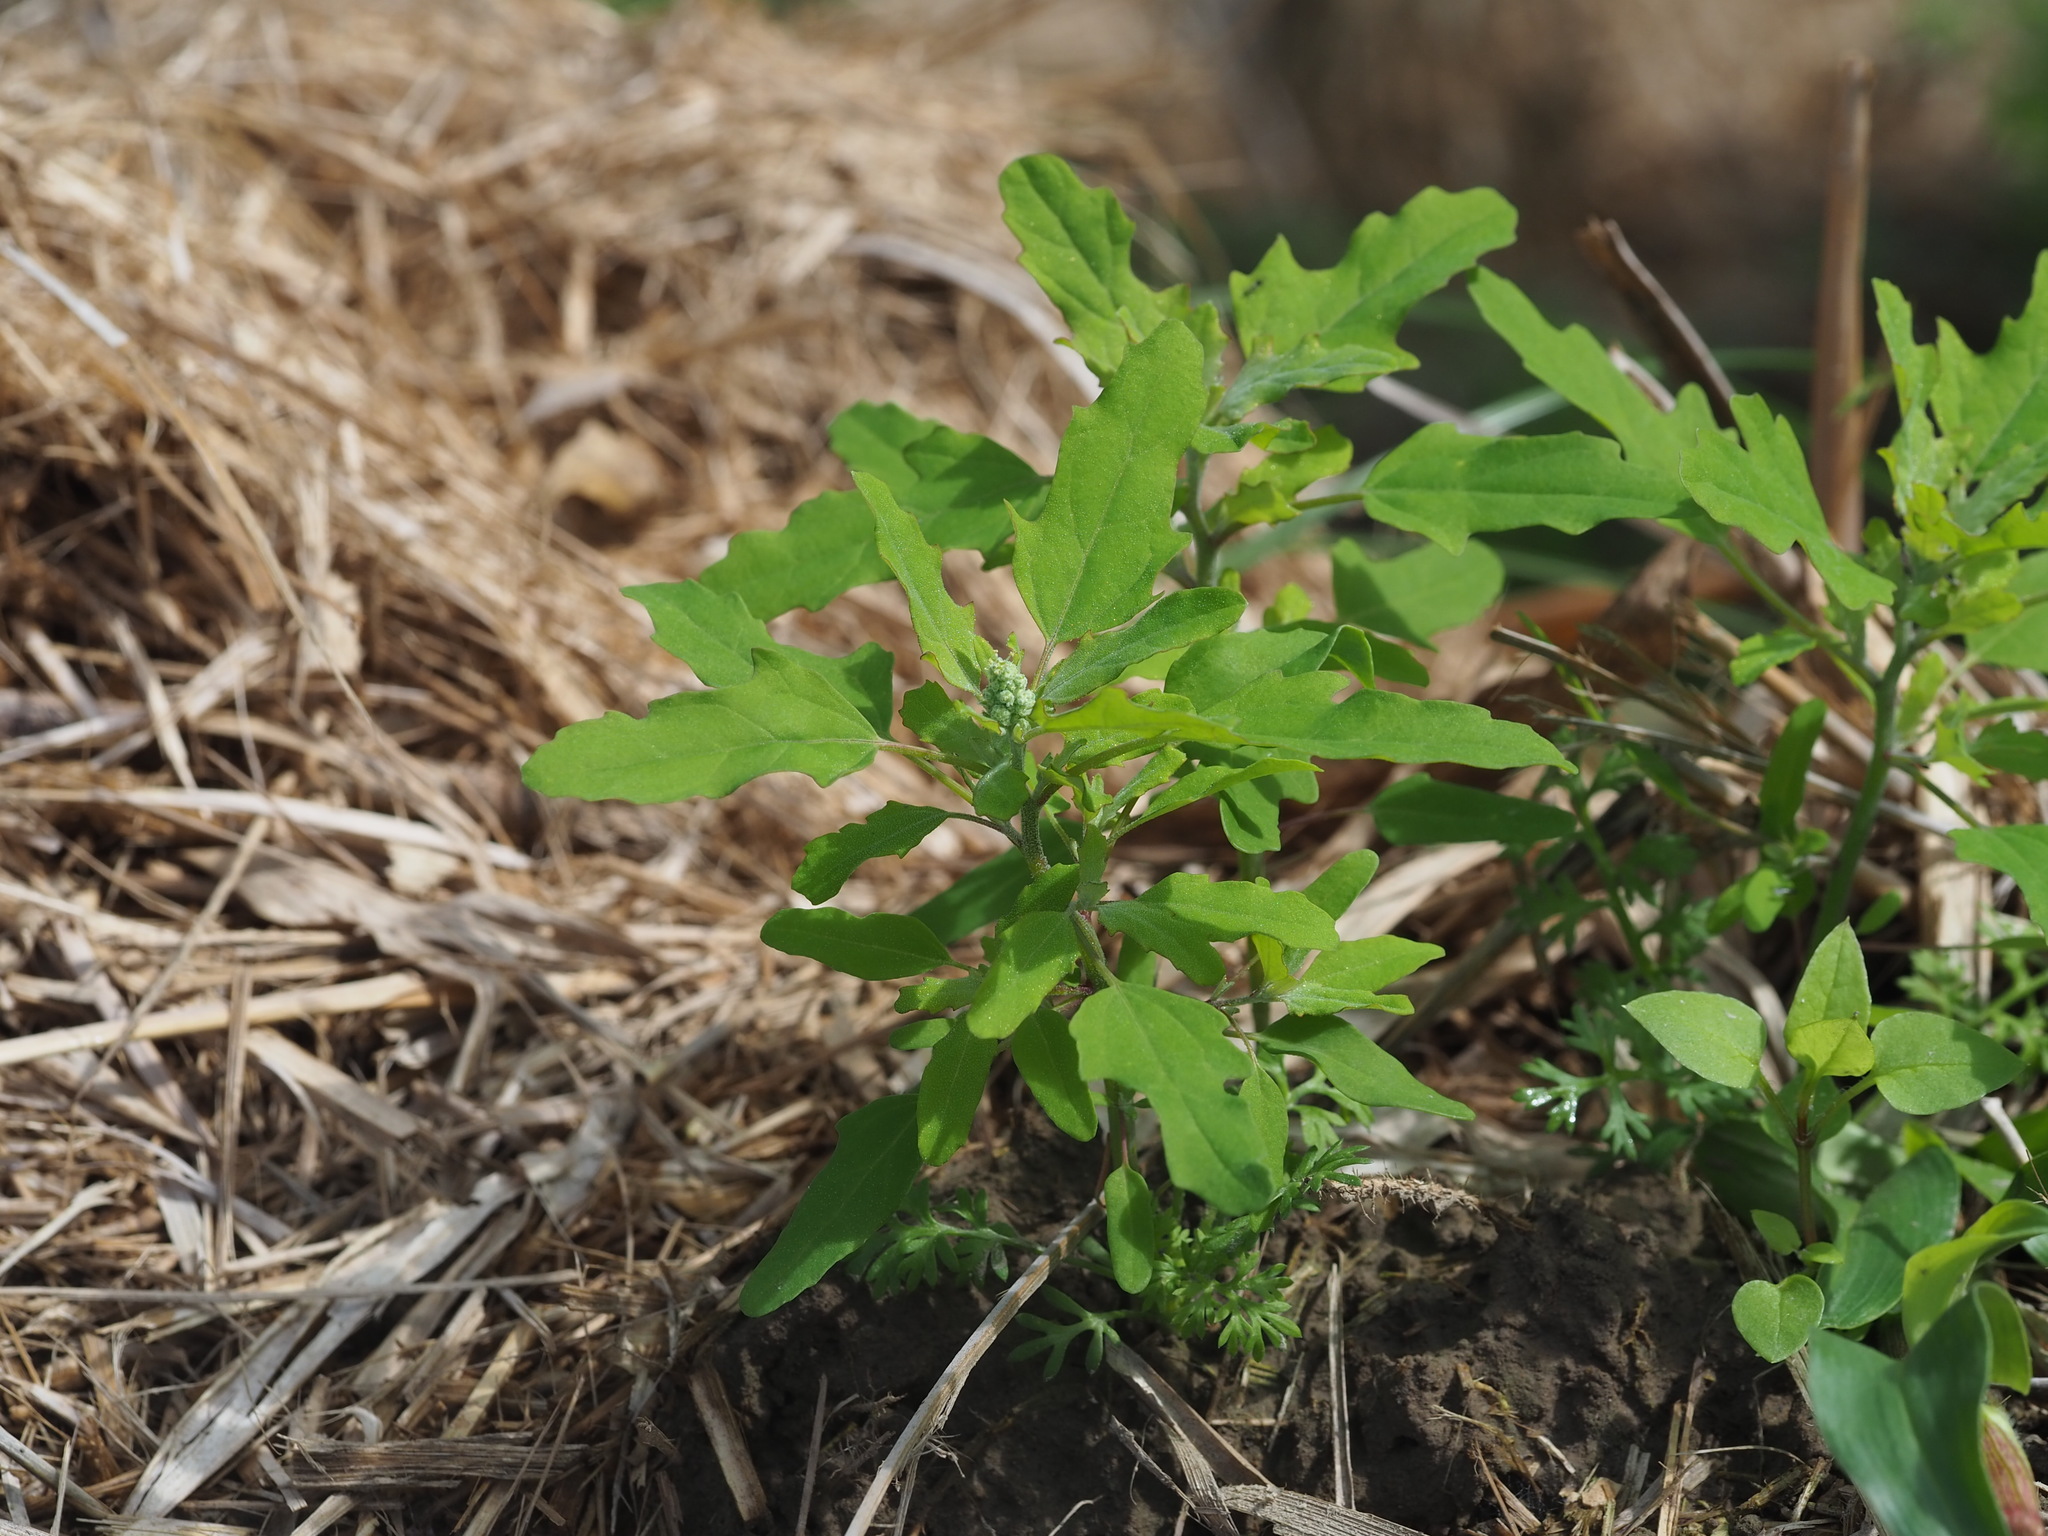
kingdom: Plantae
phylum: Tracheophyta
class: Magnoliopsida
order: Caryophyllales
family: Amaranthaceae
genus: Chenopodium
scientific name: Chenopodium ficifolium
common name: Fig-leaved goosefoot
